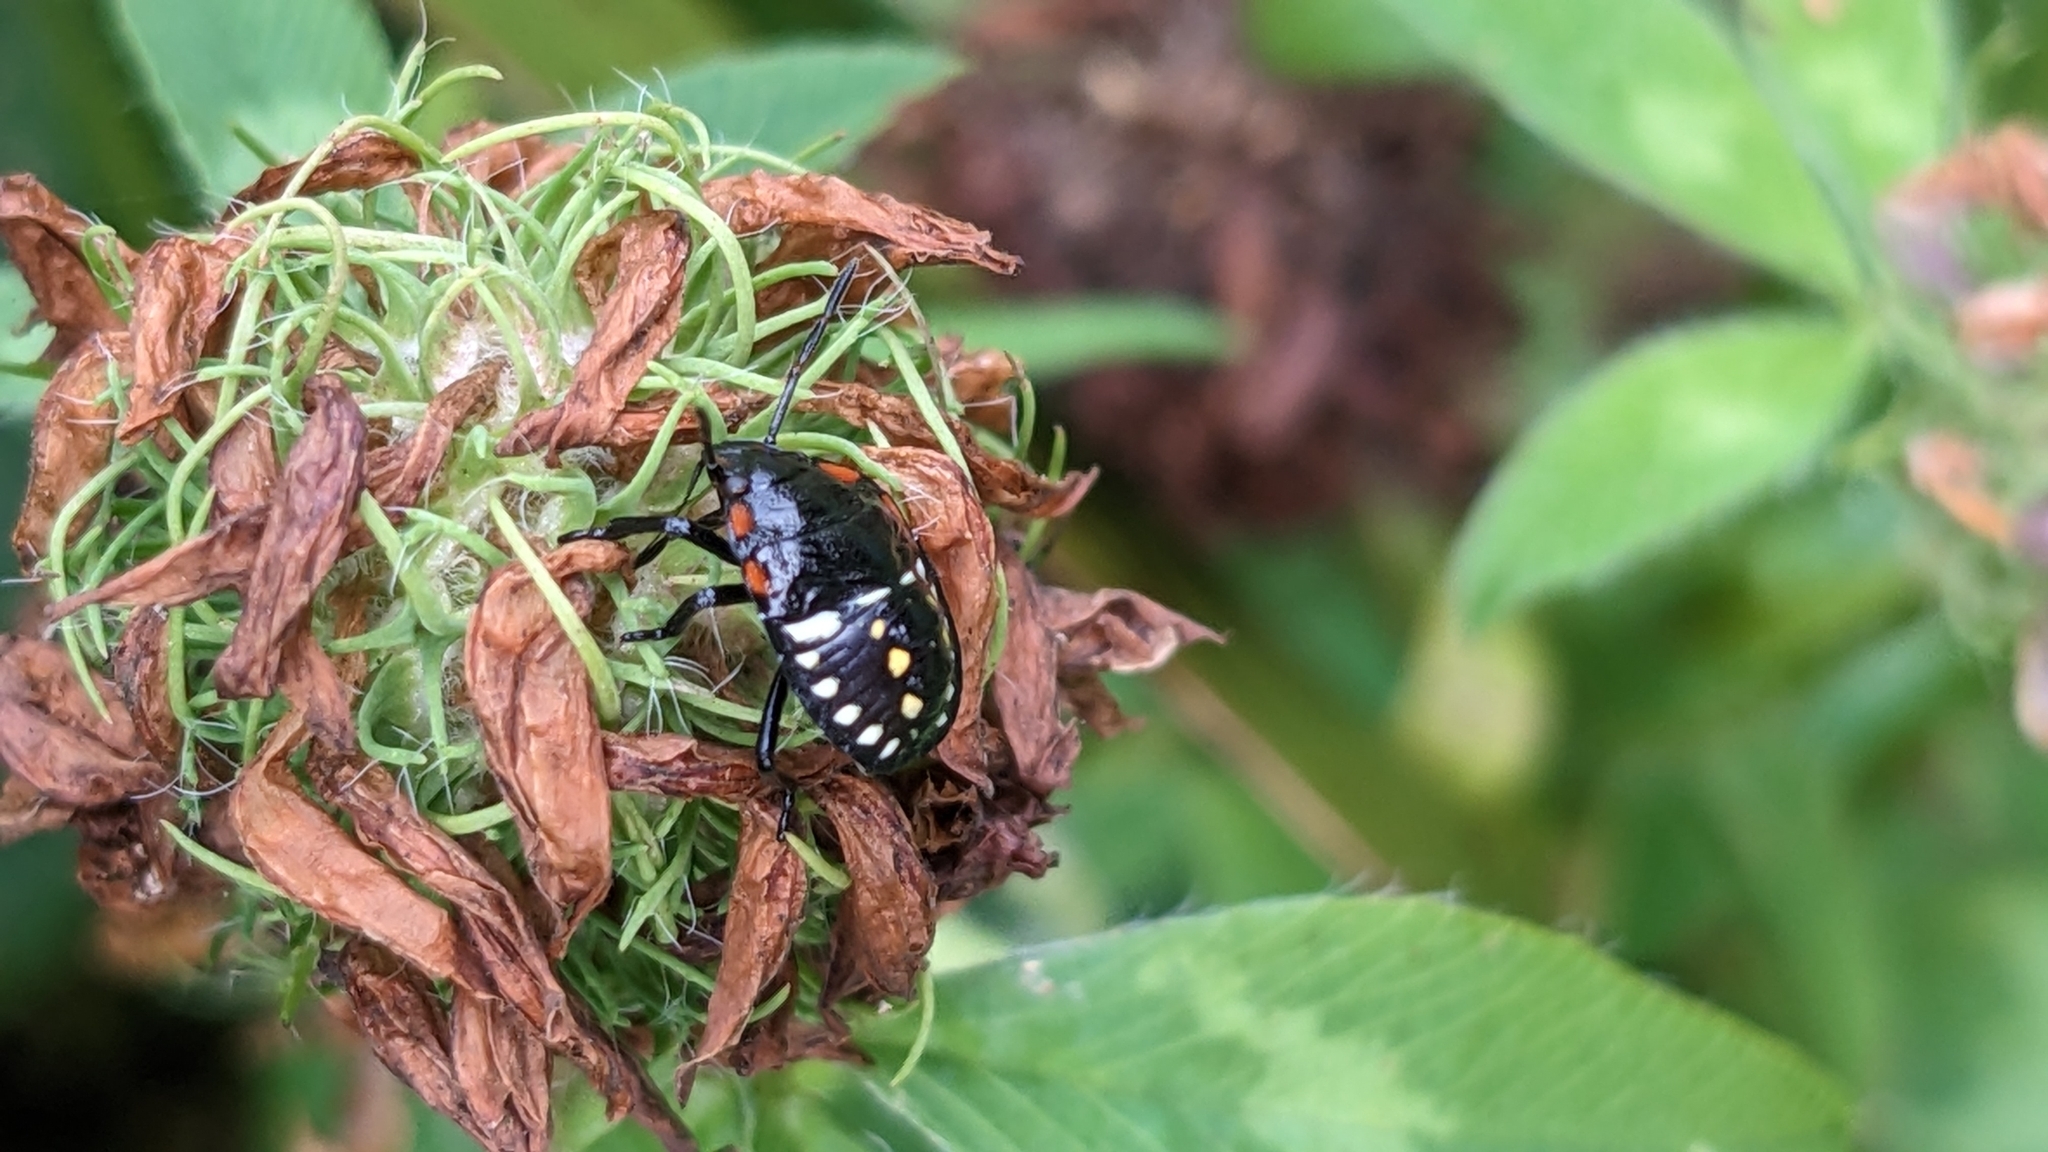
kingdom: Animalia
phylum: Arthropoda
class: Insecta
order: Hemiptera
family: Pentatomidae
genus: Nezara
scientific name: Nezara viridula
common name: Southern green stink bug
